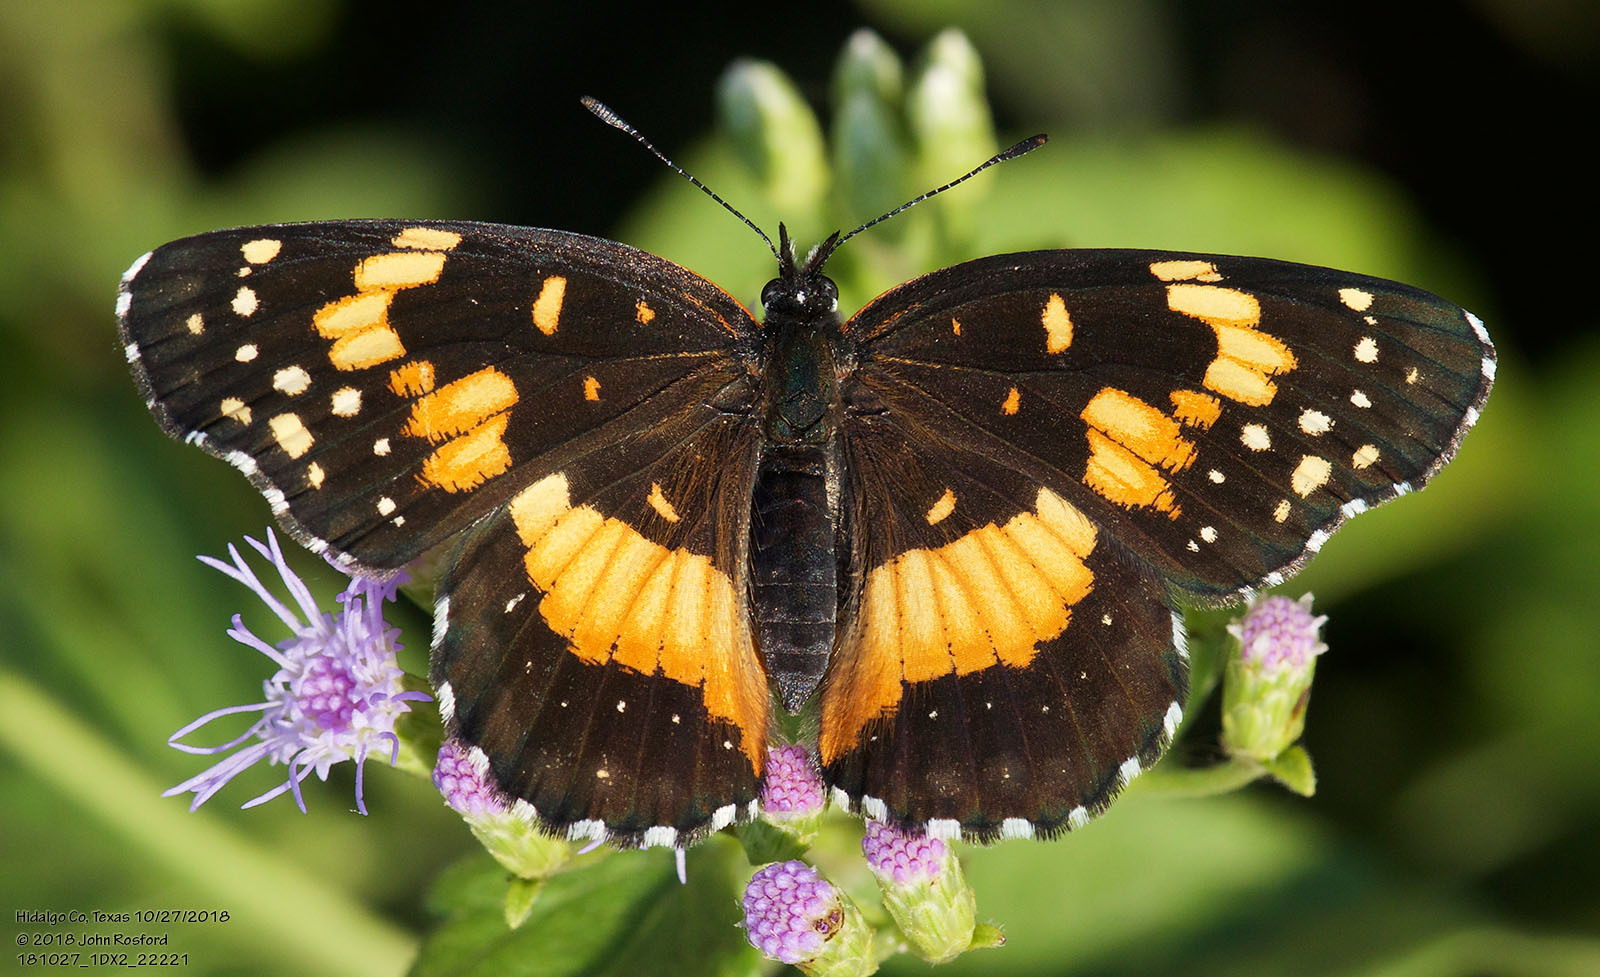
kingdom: Animalia
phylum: Arthropoda
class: Insecta
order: Lepidoptera
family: Nymphalidae
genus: Chlosyne
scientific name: Chlosyne lacinia
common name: Bordered patch
